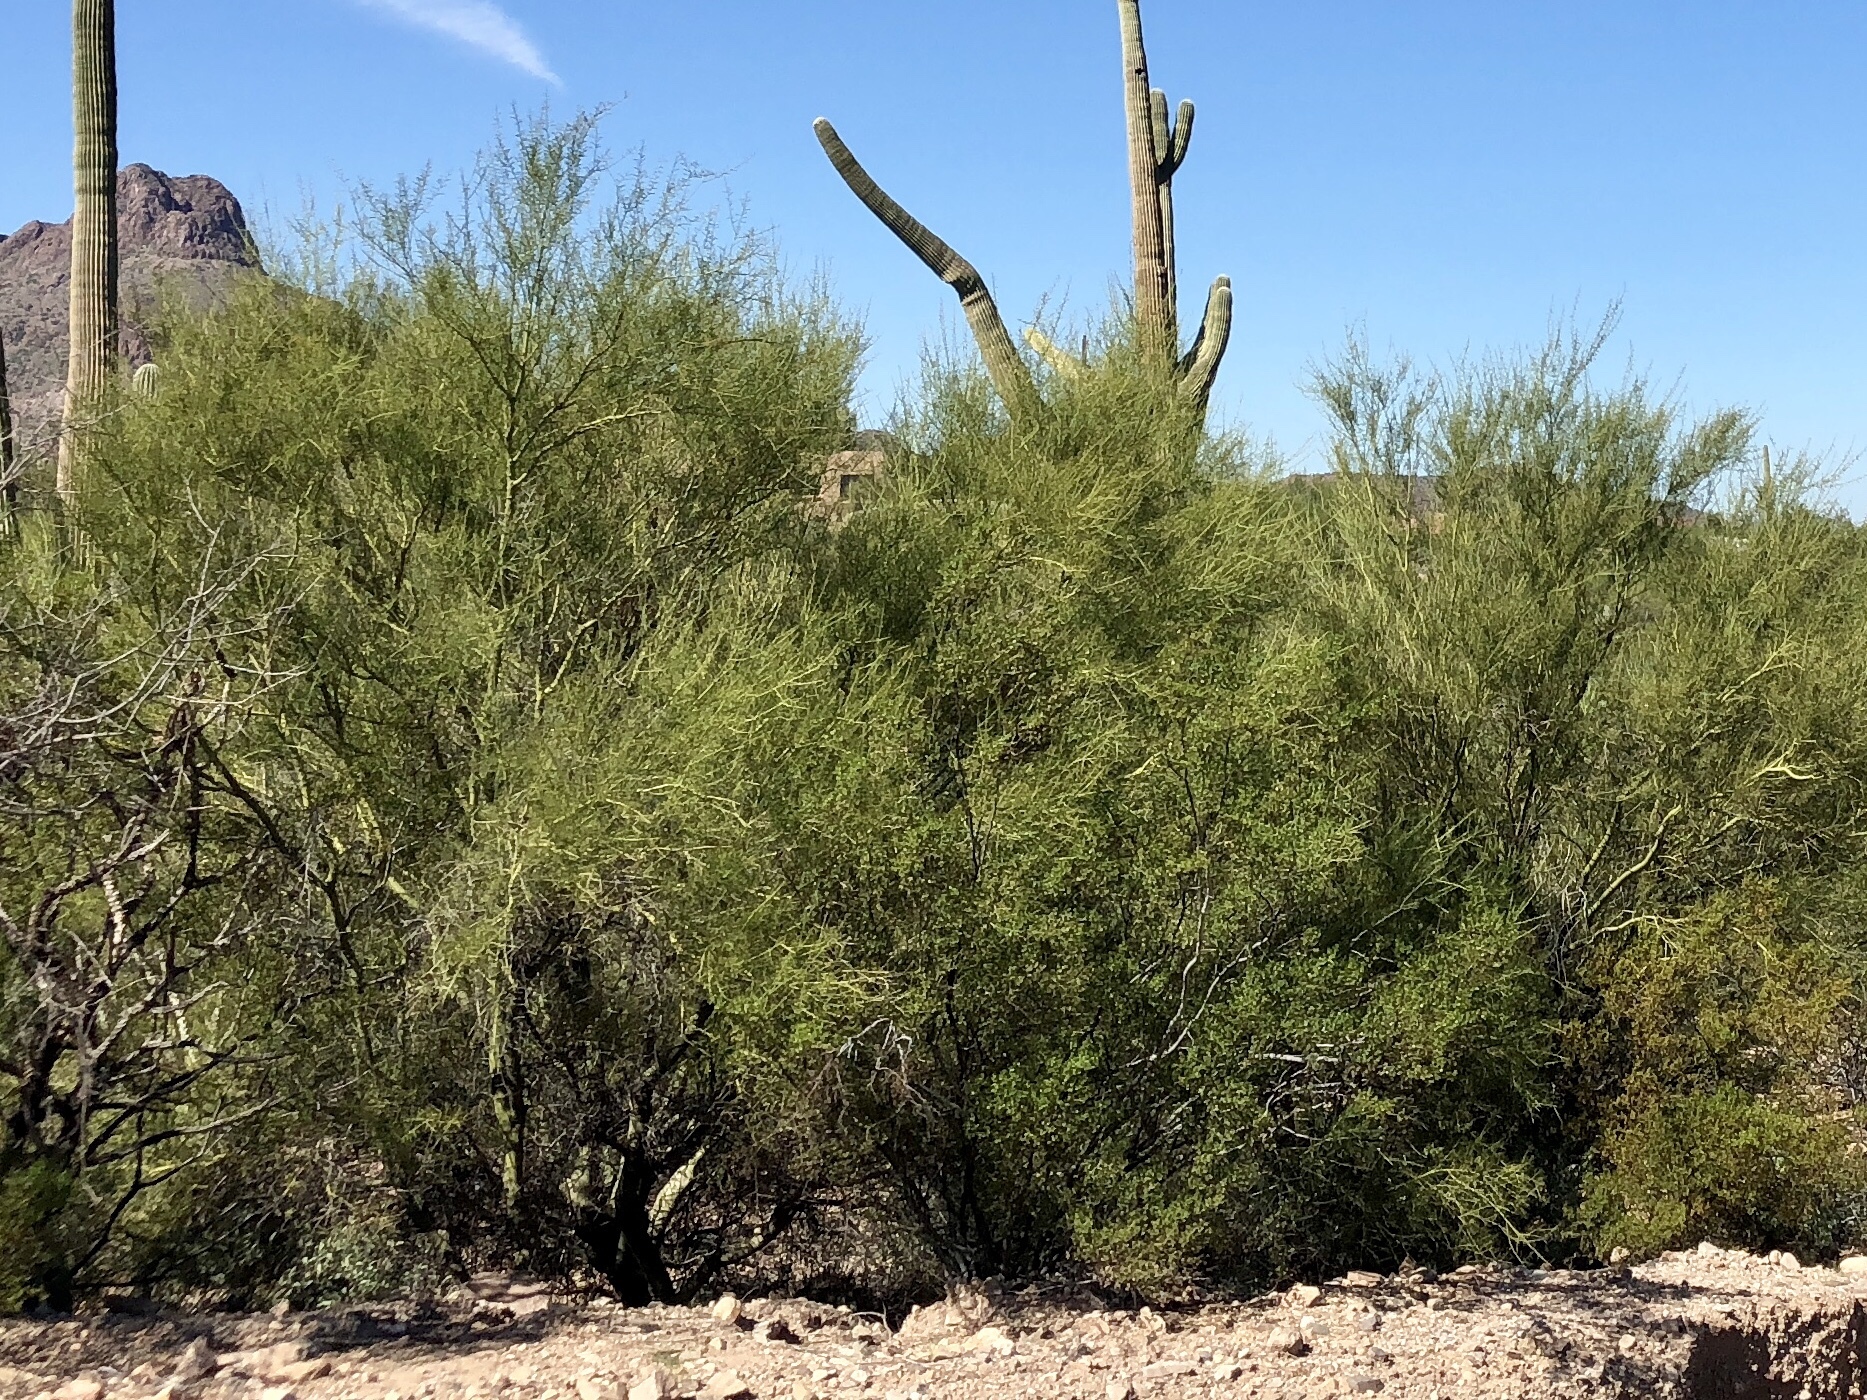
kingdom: Plantae
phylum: Tracheophyta
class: Magnoliopsida
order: Fabales
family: Fabaceae
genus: Parkinsonia
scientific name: Parkinsonia microphylla
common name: Yellow paloverde
